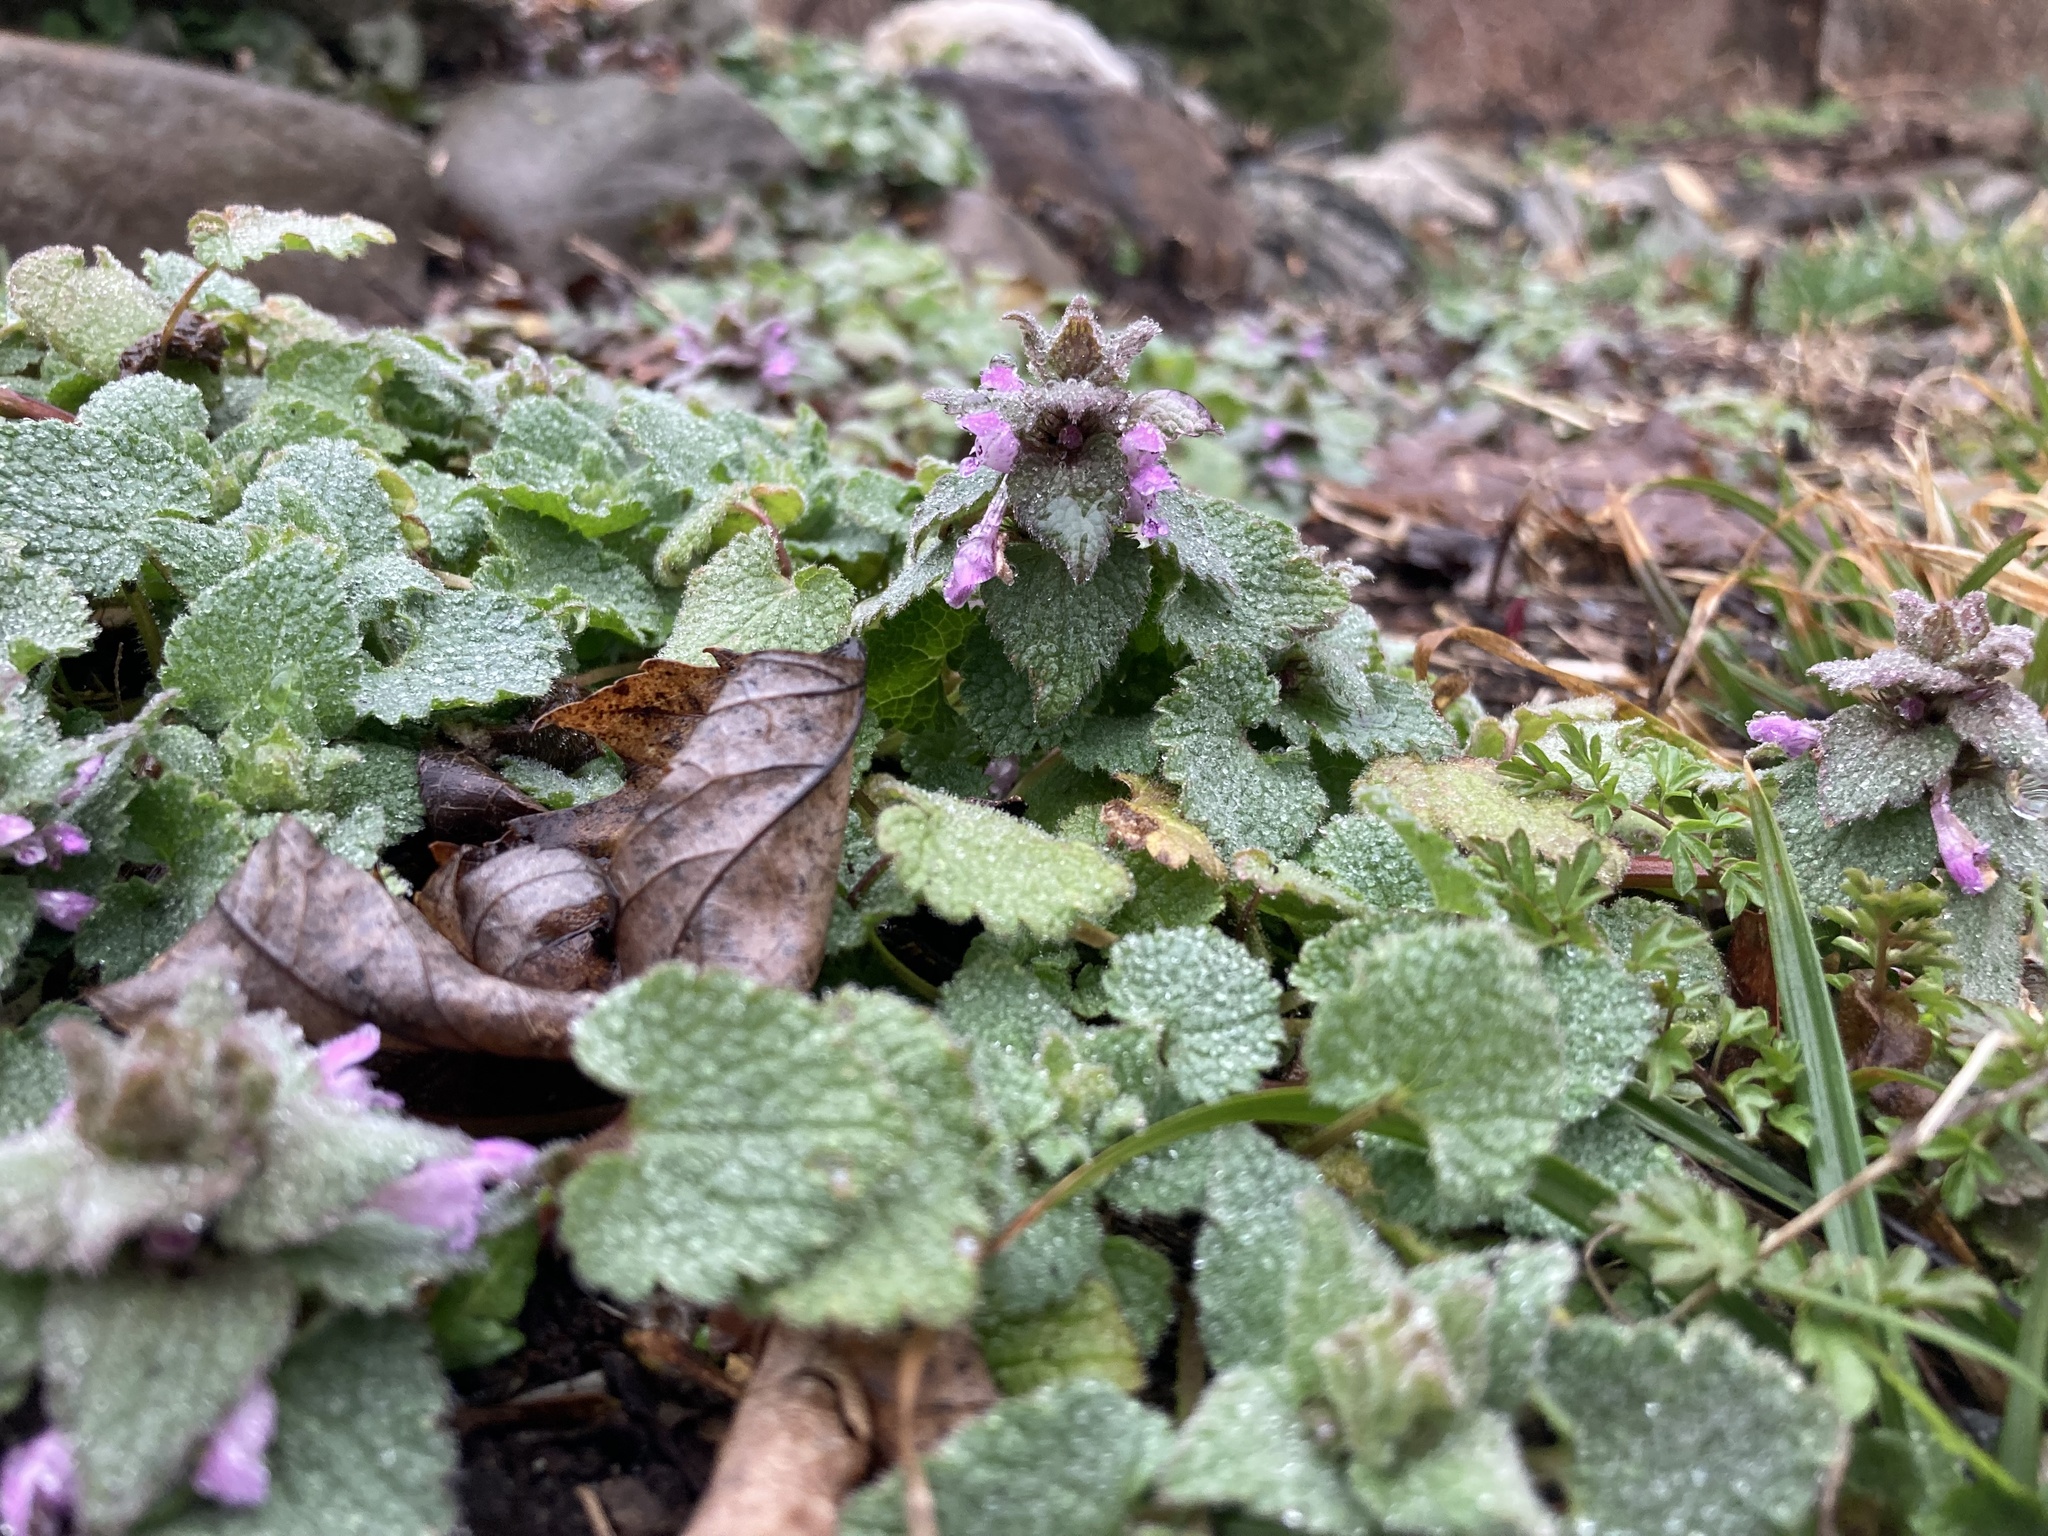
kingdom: Plantae
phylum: Tracheophyta
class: Magnoliopsida
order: Lamiales
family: Lamiaceae
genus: Lamium
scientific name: Lamium purpureum
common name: Red dead-nettle
